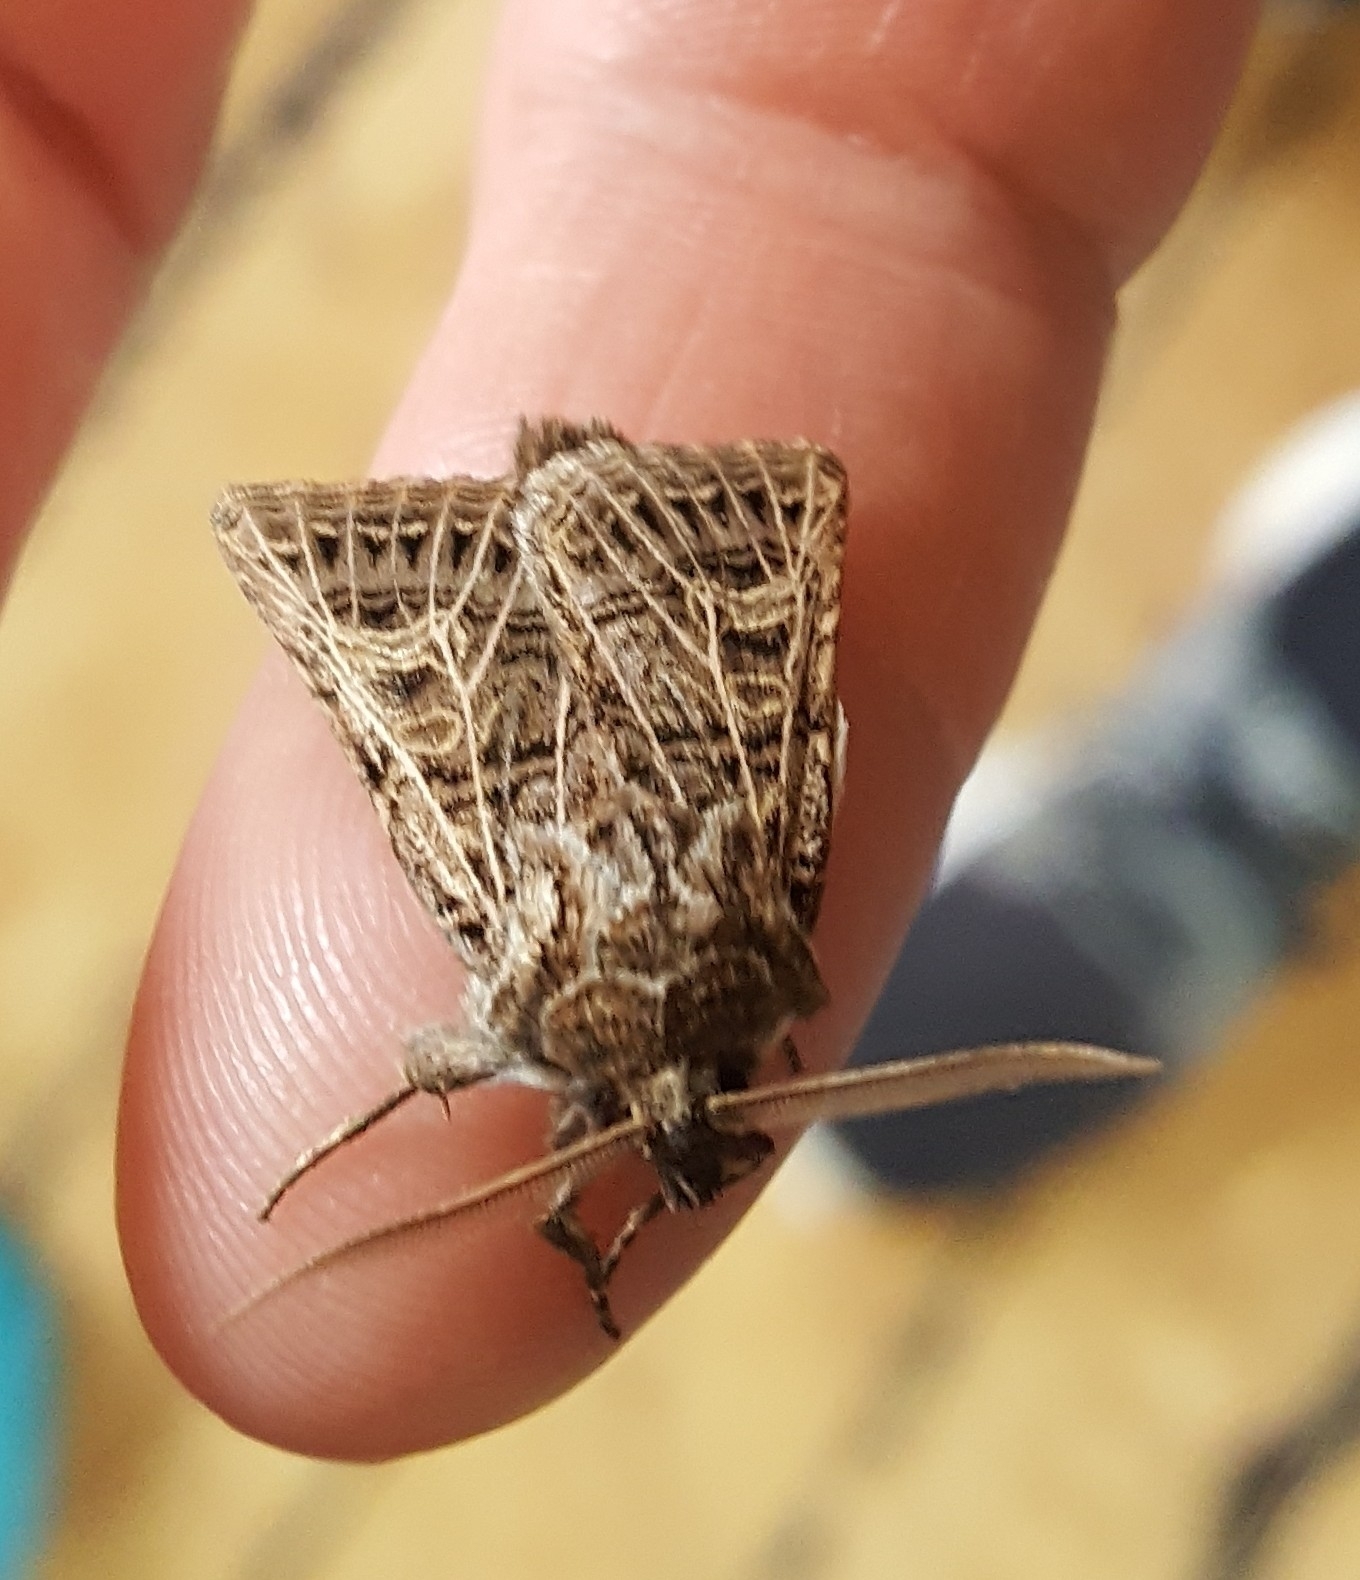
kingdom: Animalia
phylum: Arthropoda
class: Insecta
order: Lepidoptera
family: Noctuidae
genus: Tholera
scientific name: Tholera decimalis
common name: Feathered gothic
